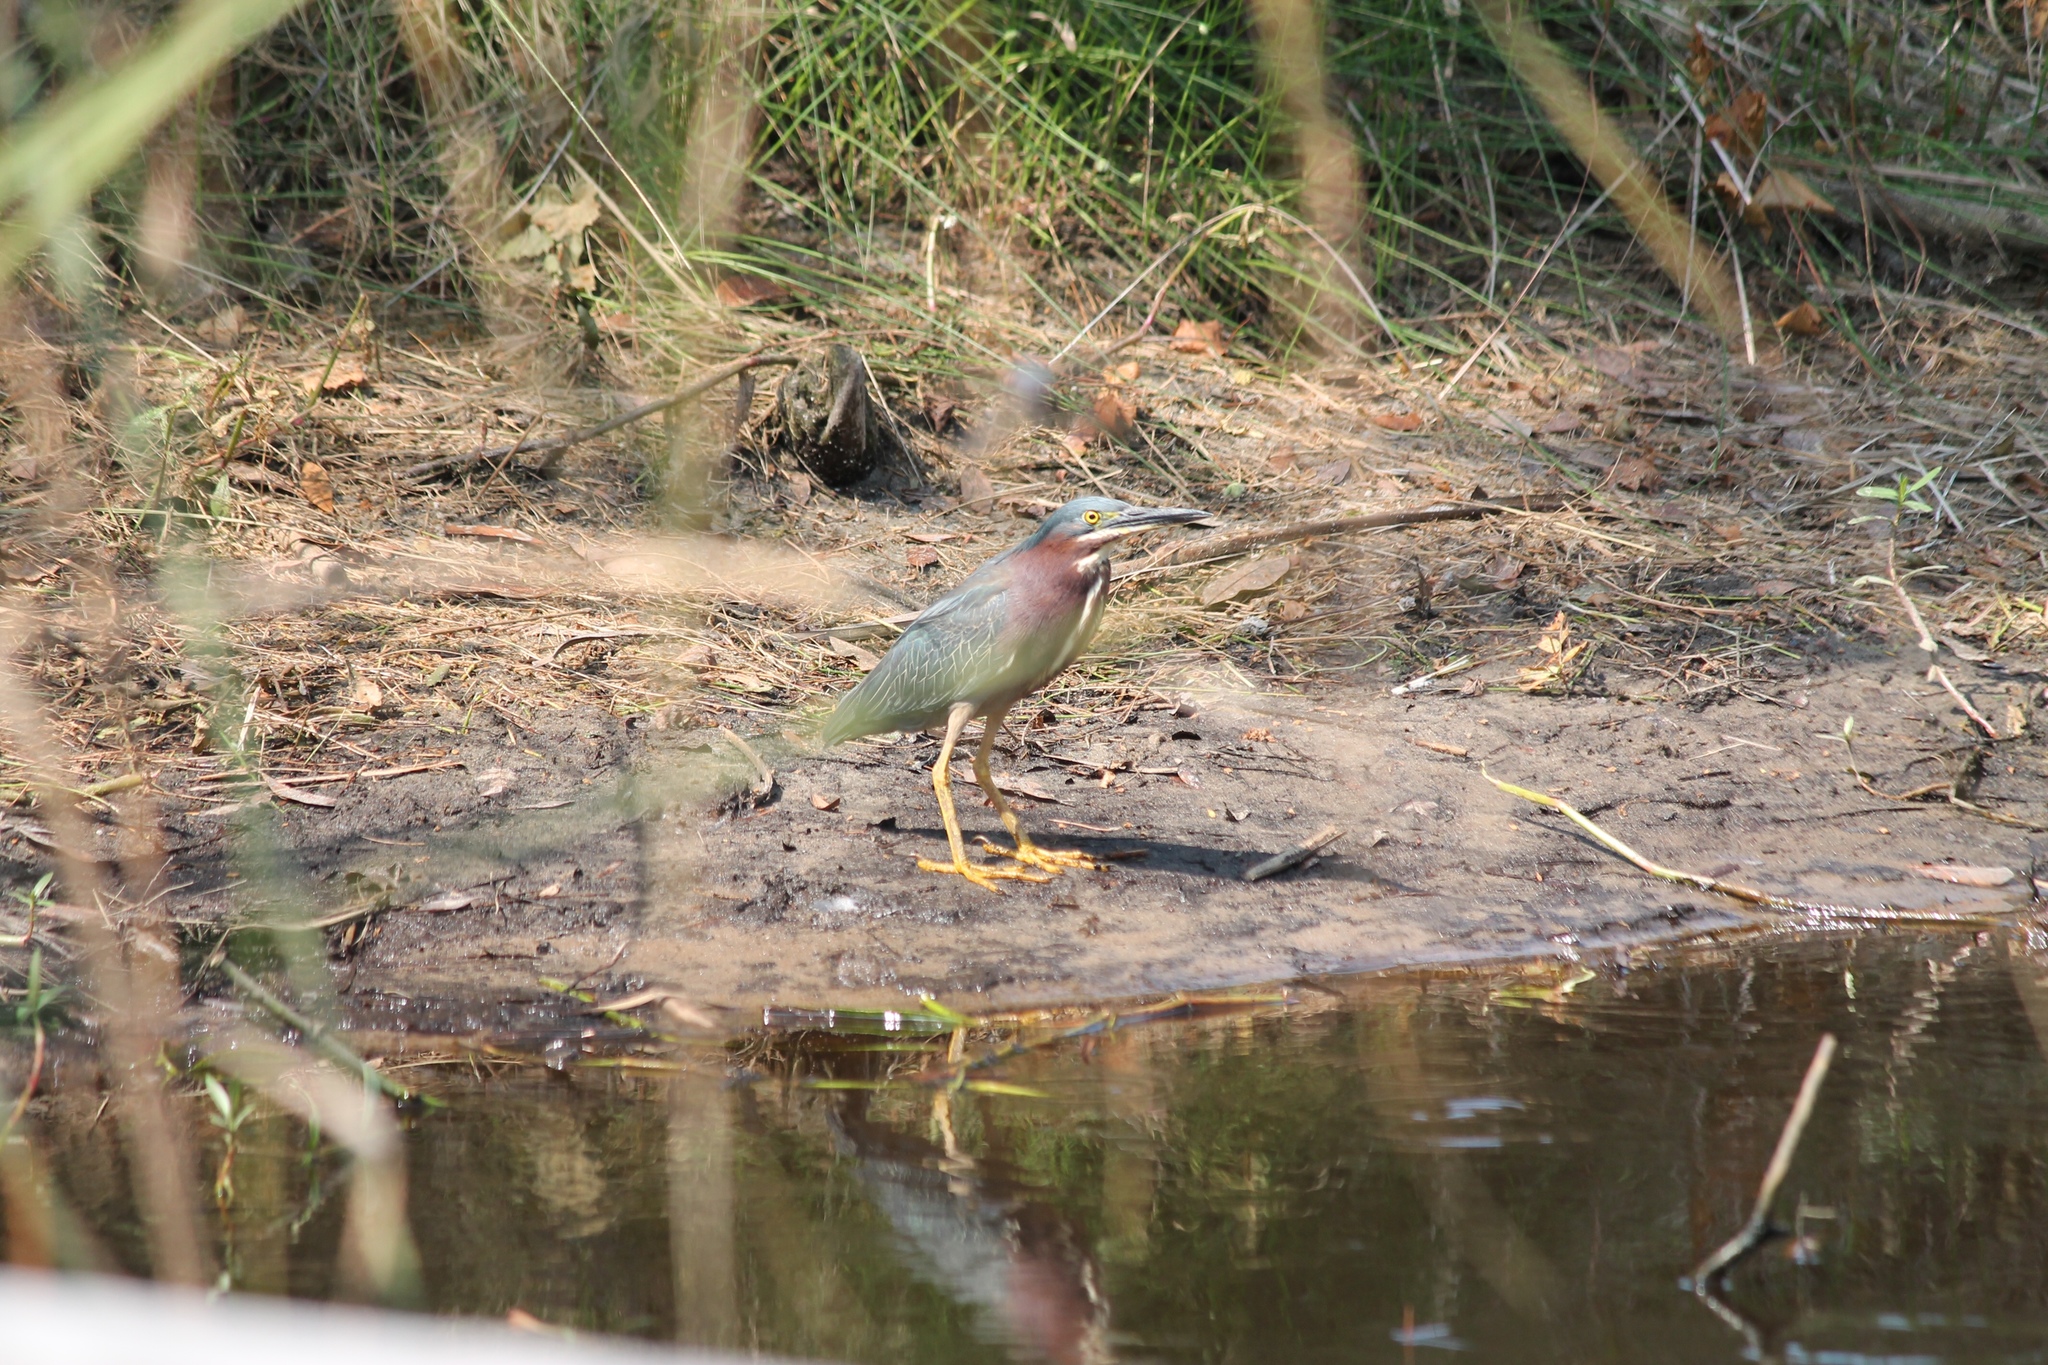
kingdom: Animalia
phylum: Chordata
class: Aves
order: Pelecaniformes
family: Ardeidae
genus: Butorides
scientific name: Butorides virescens
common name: Green heron
